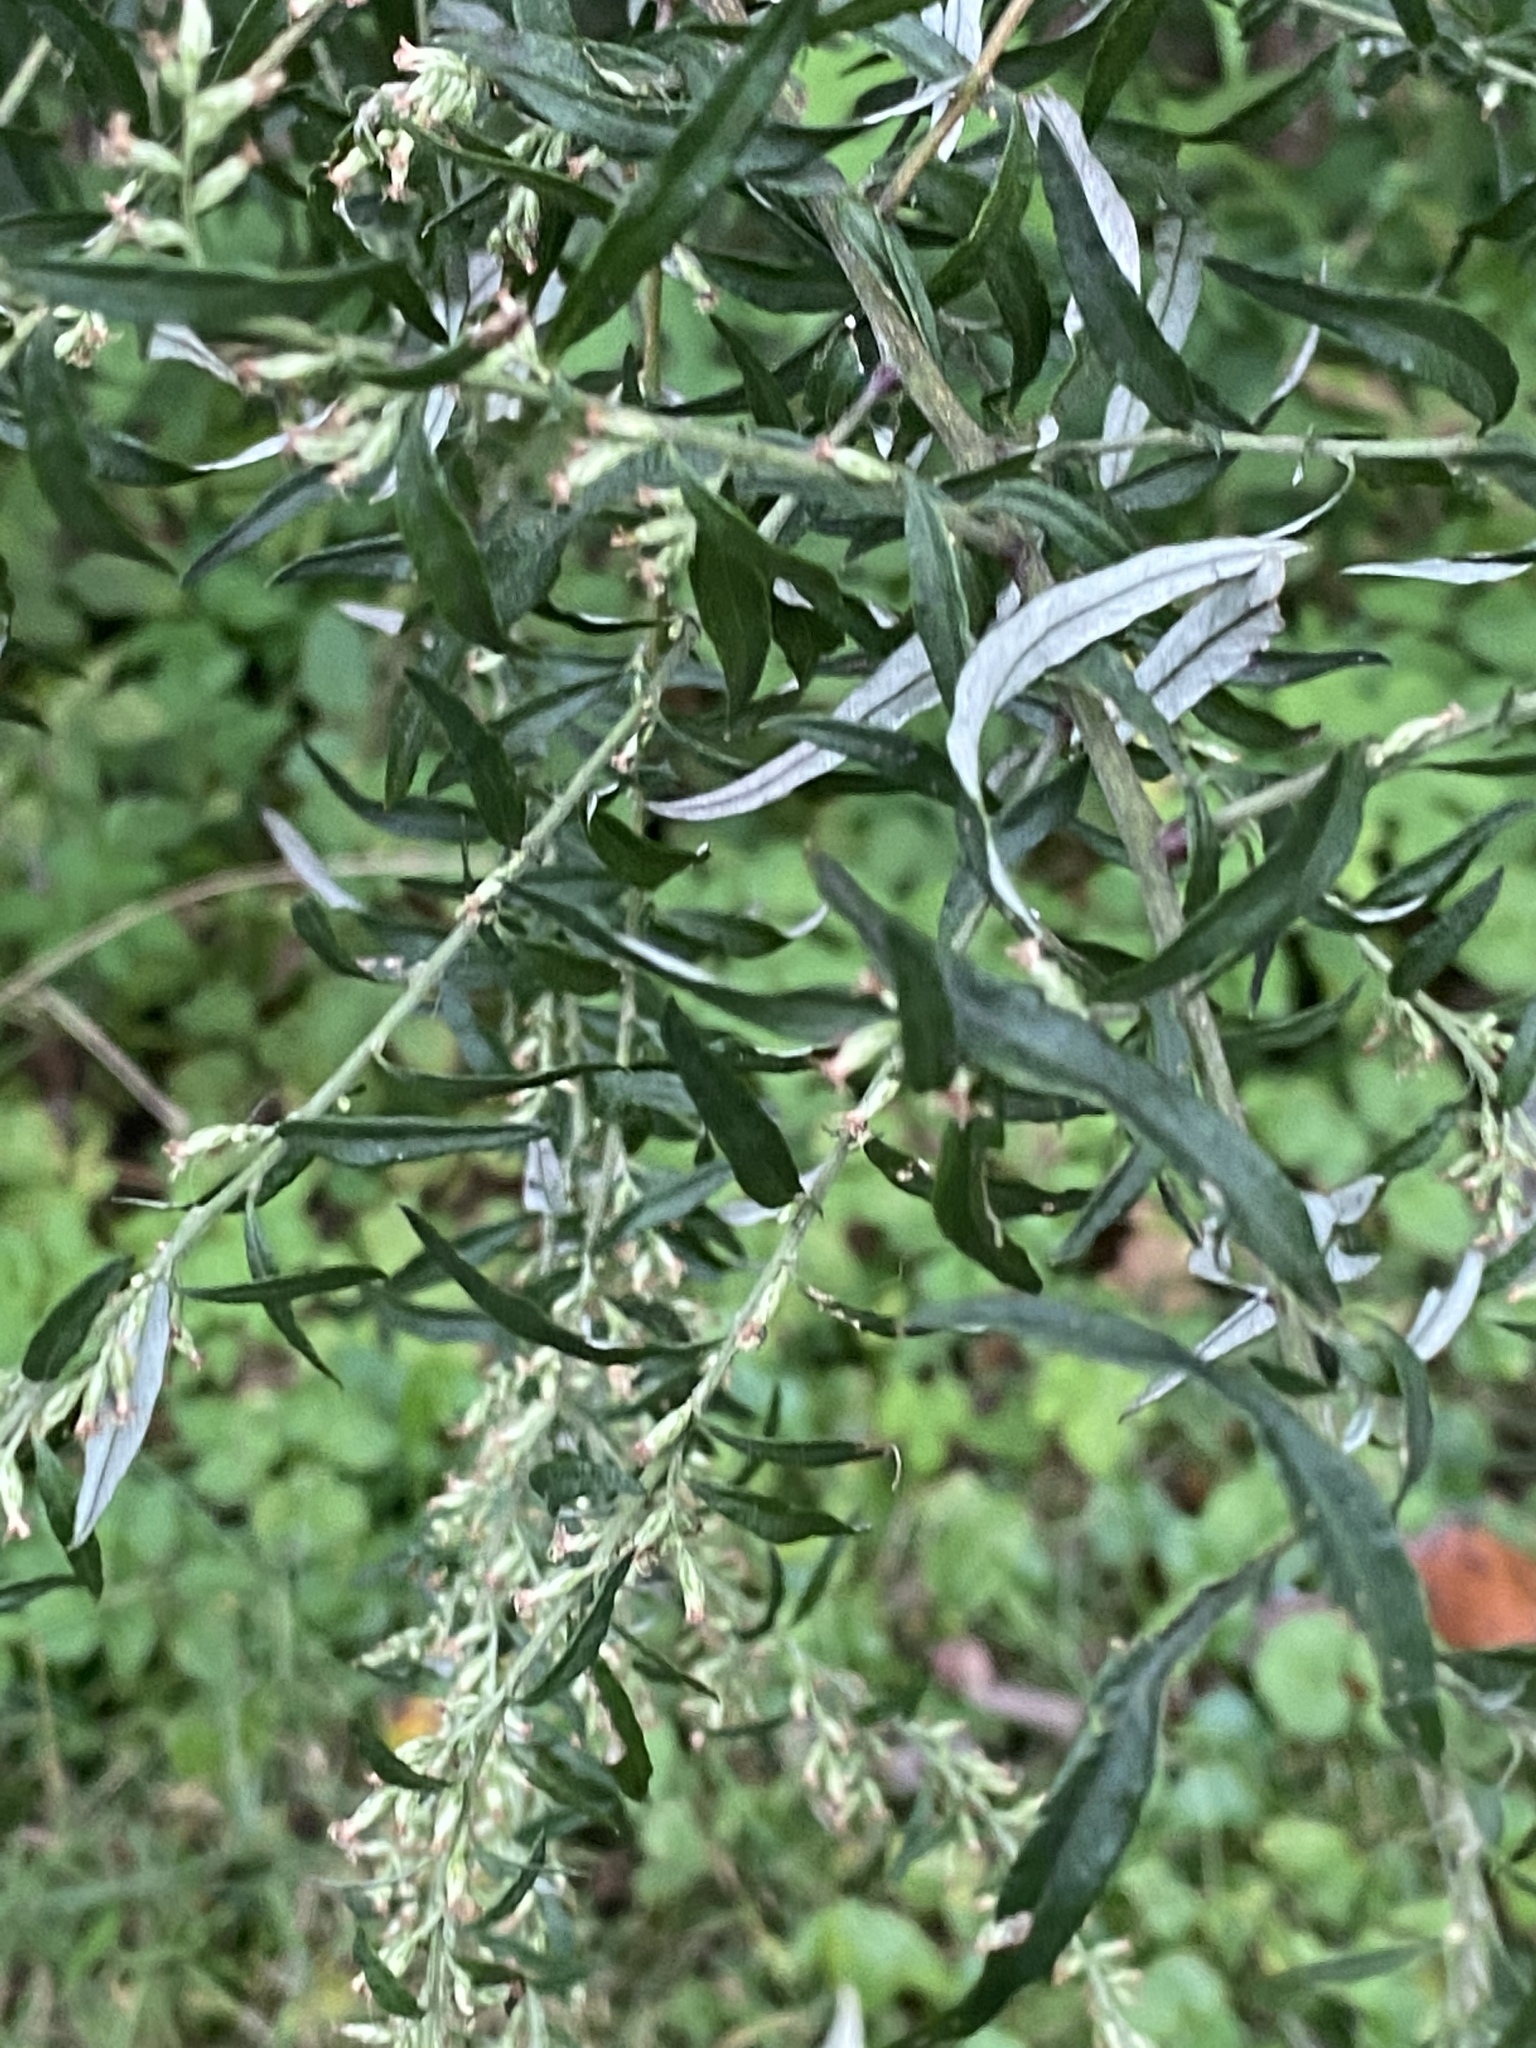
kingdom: Plantae
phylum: Tracheophyta
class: Magnoliopsida
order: Asterales
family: Asteraceae
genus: Artemisia
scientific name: Artemisia vulgaris
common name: Mugwort
